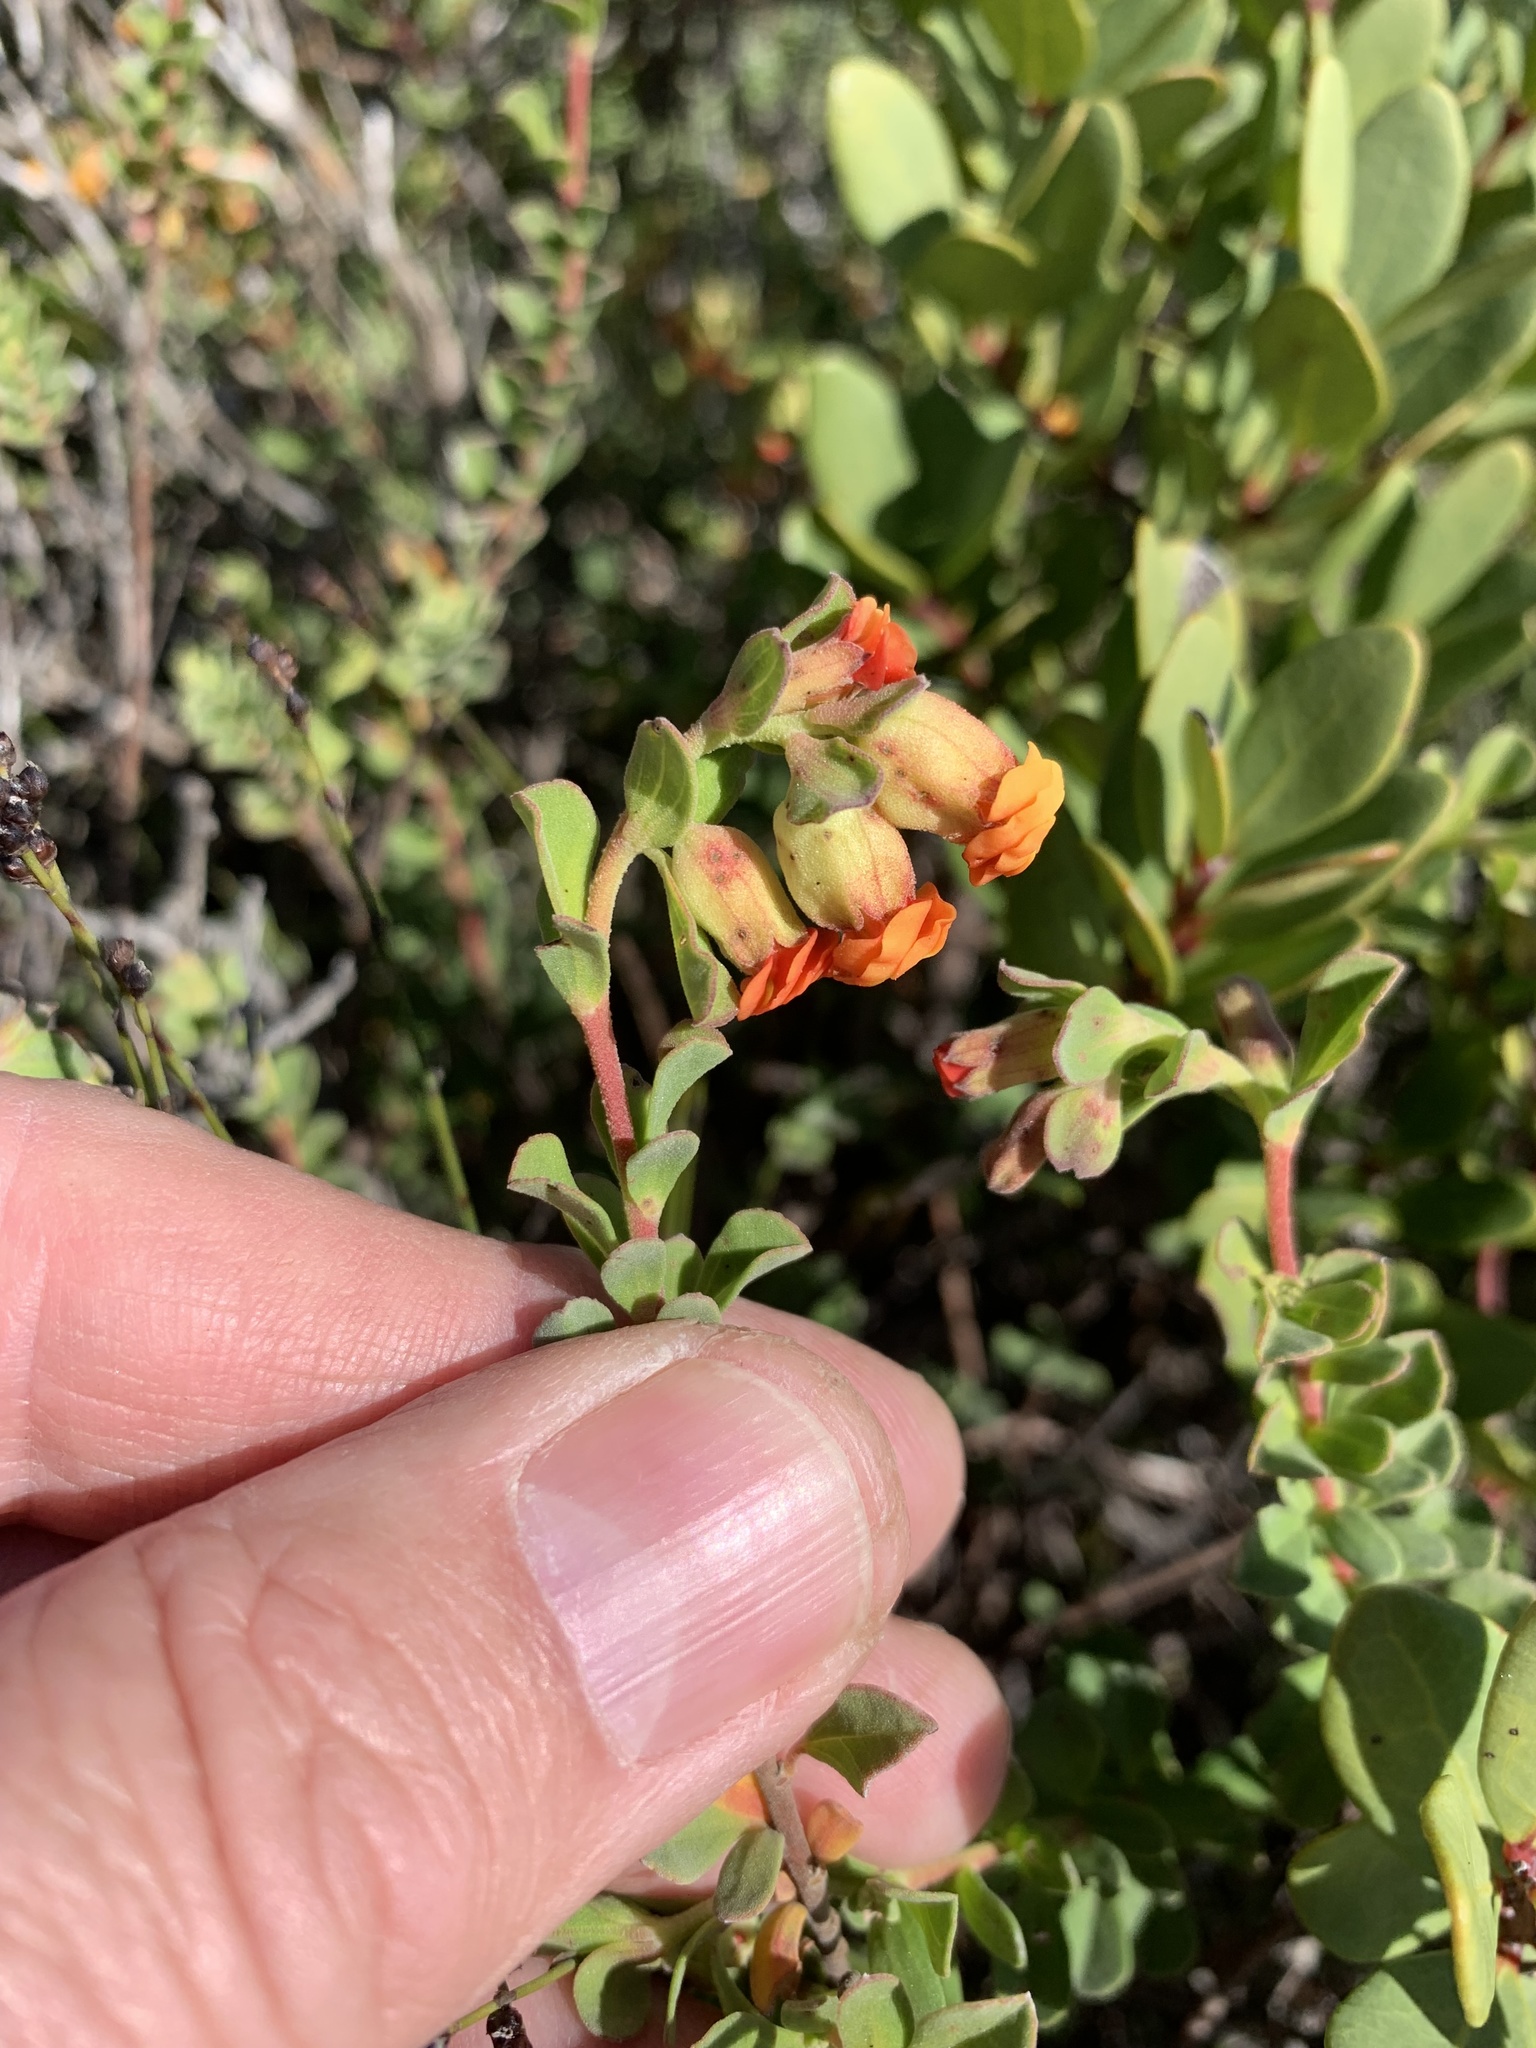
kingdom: Plantae
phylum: Tracheophyta
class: Magnoliopsida
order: Malvales
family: Malvaceae
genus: Hermannia
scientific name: Hermannia ternifolia
